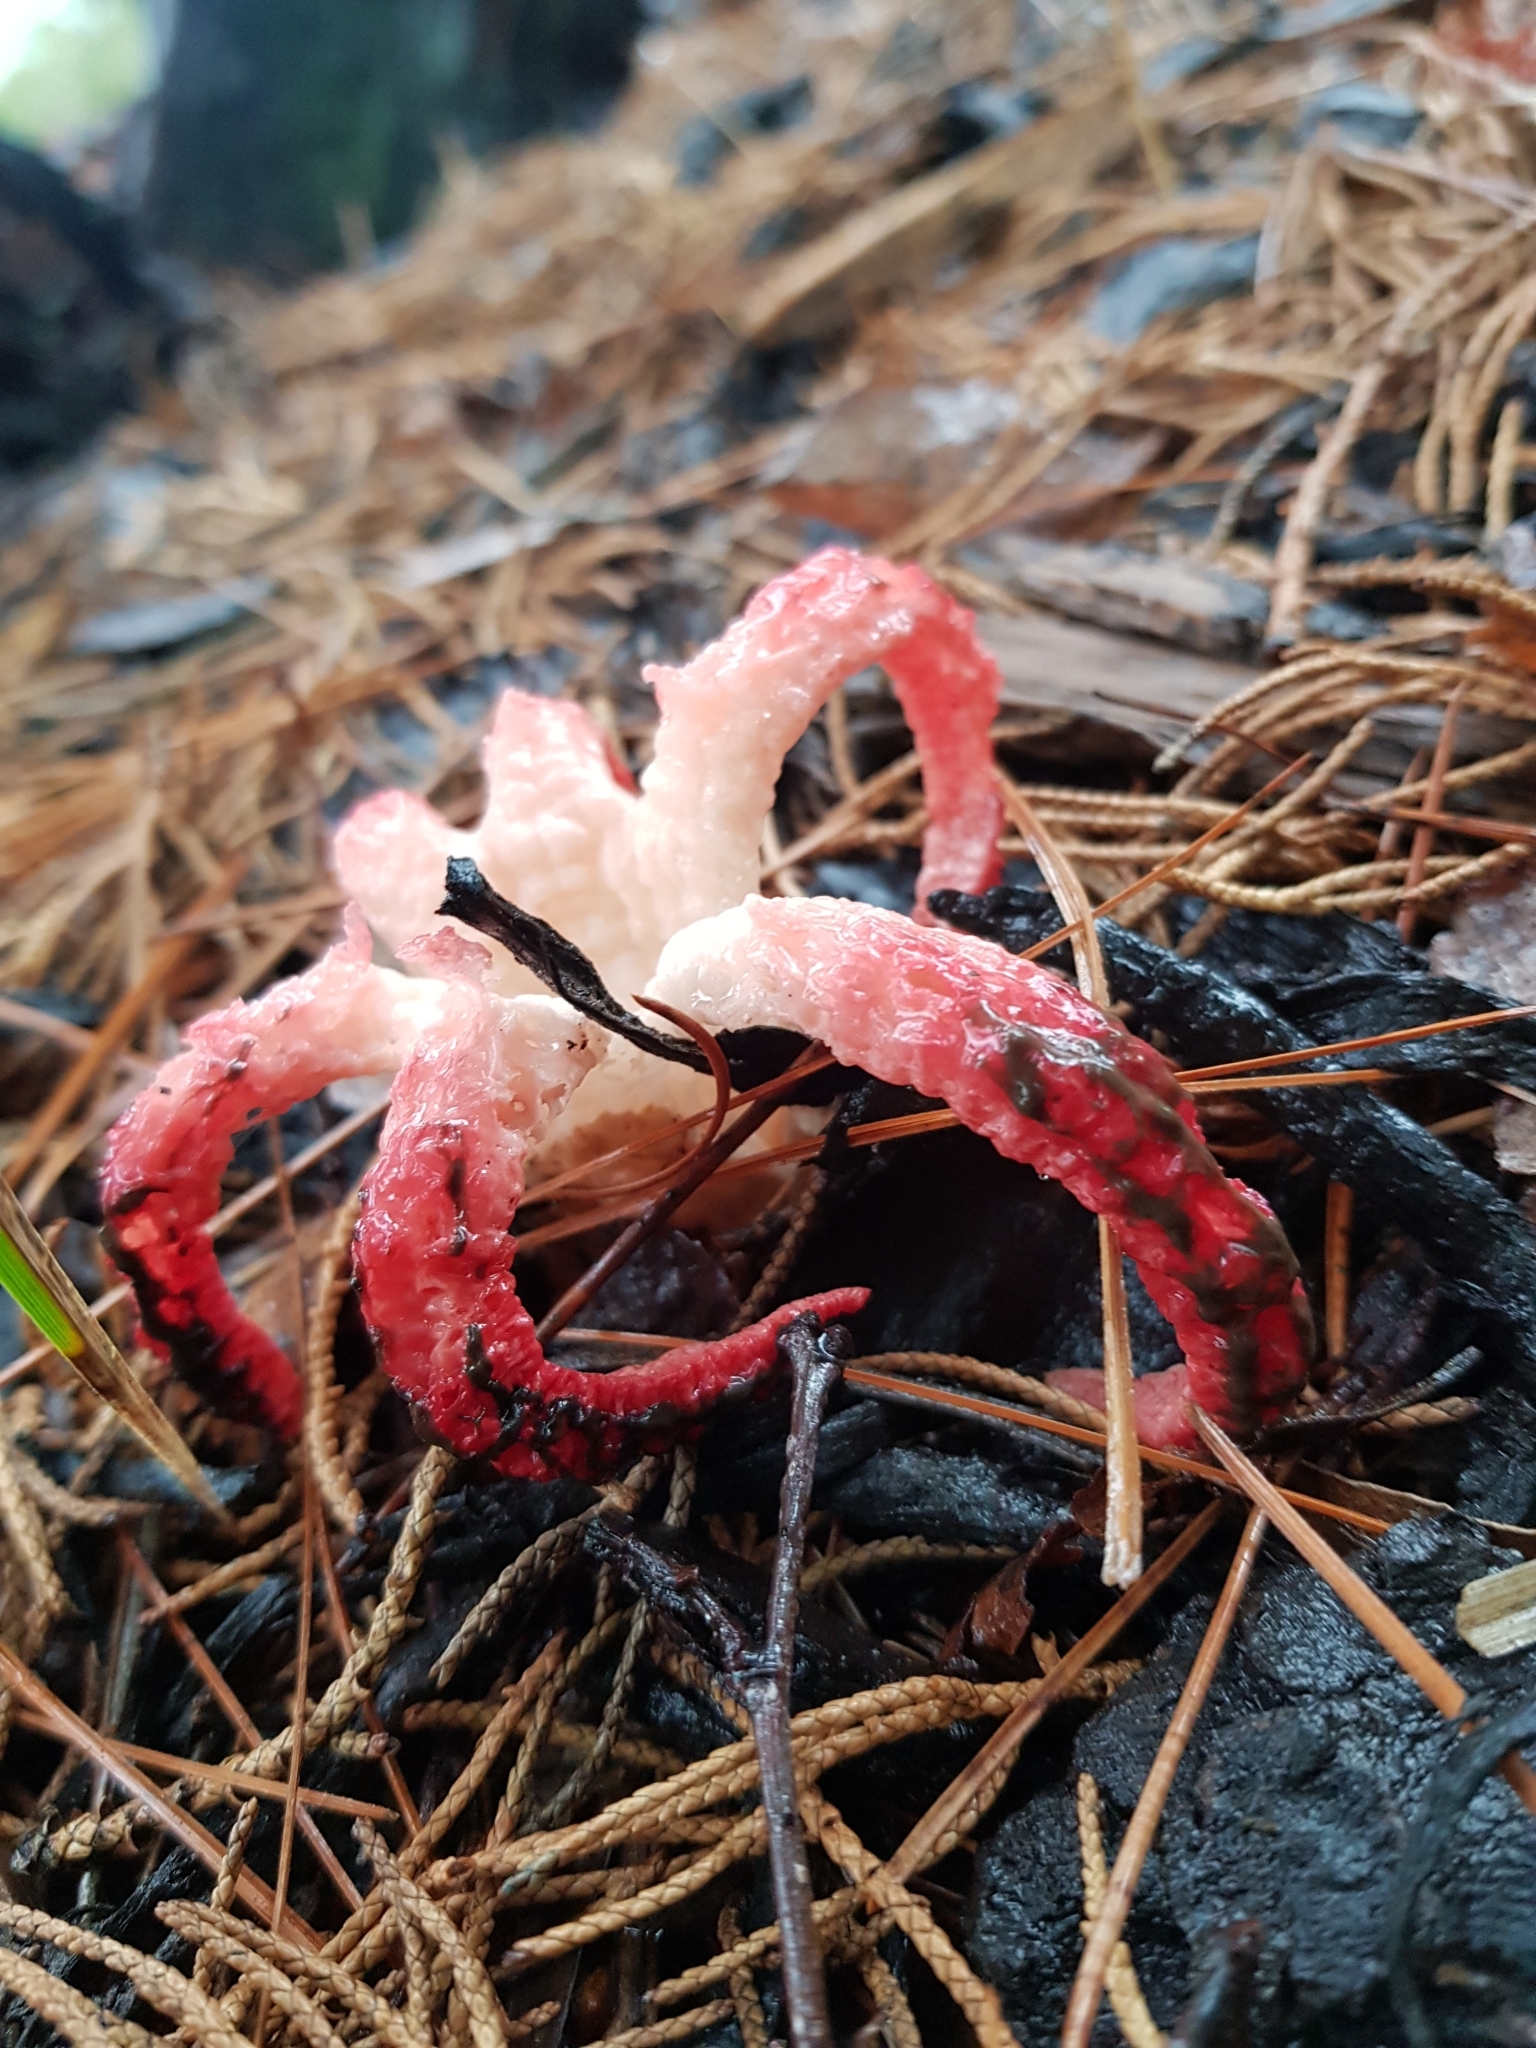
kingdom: Fungi
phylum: Basidiomycota
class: Agaricomycetes
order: Phallales
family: Phallaceae
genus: Clathrus
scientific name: Clathrus archeri
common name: Devil's fingers
